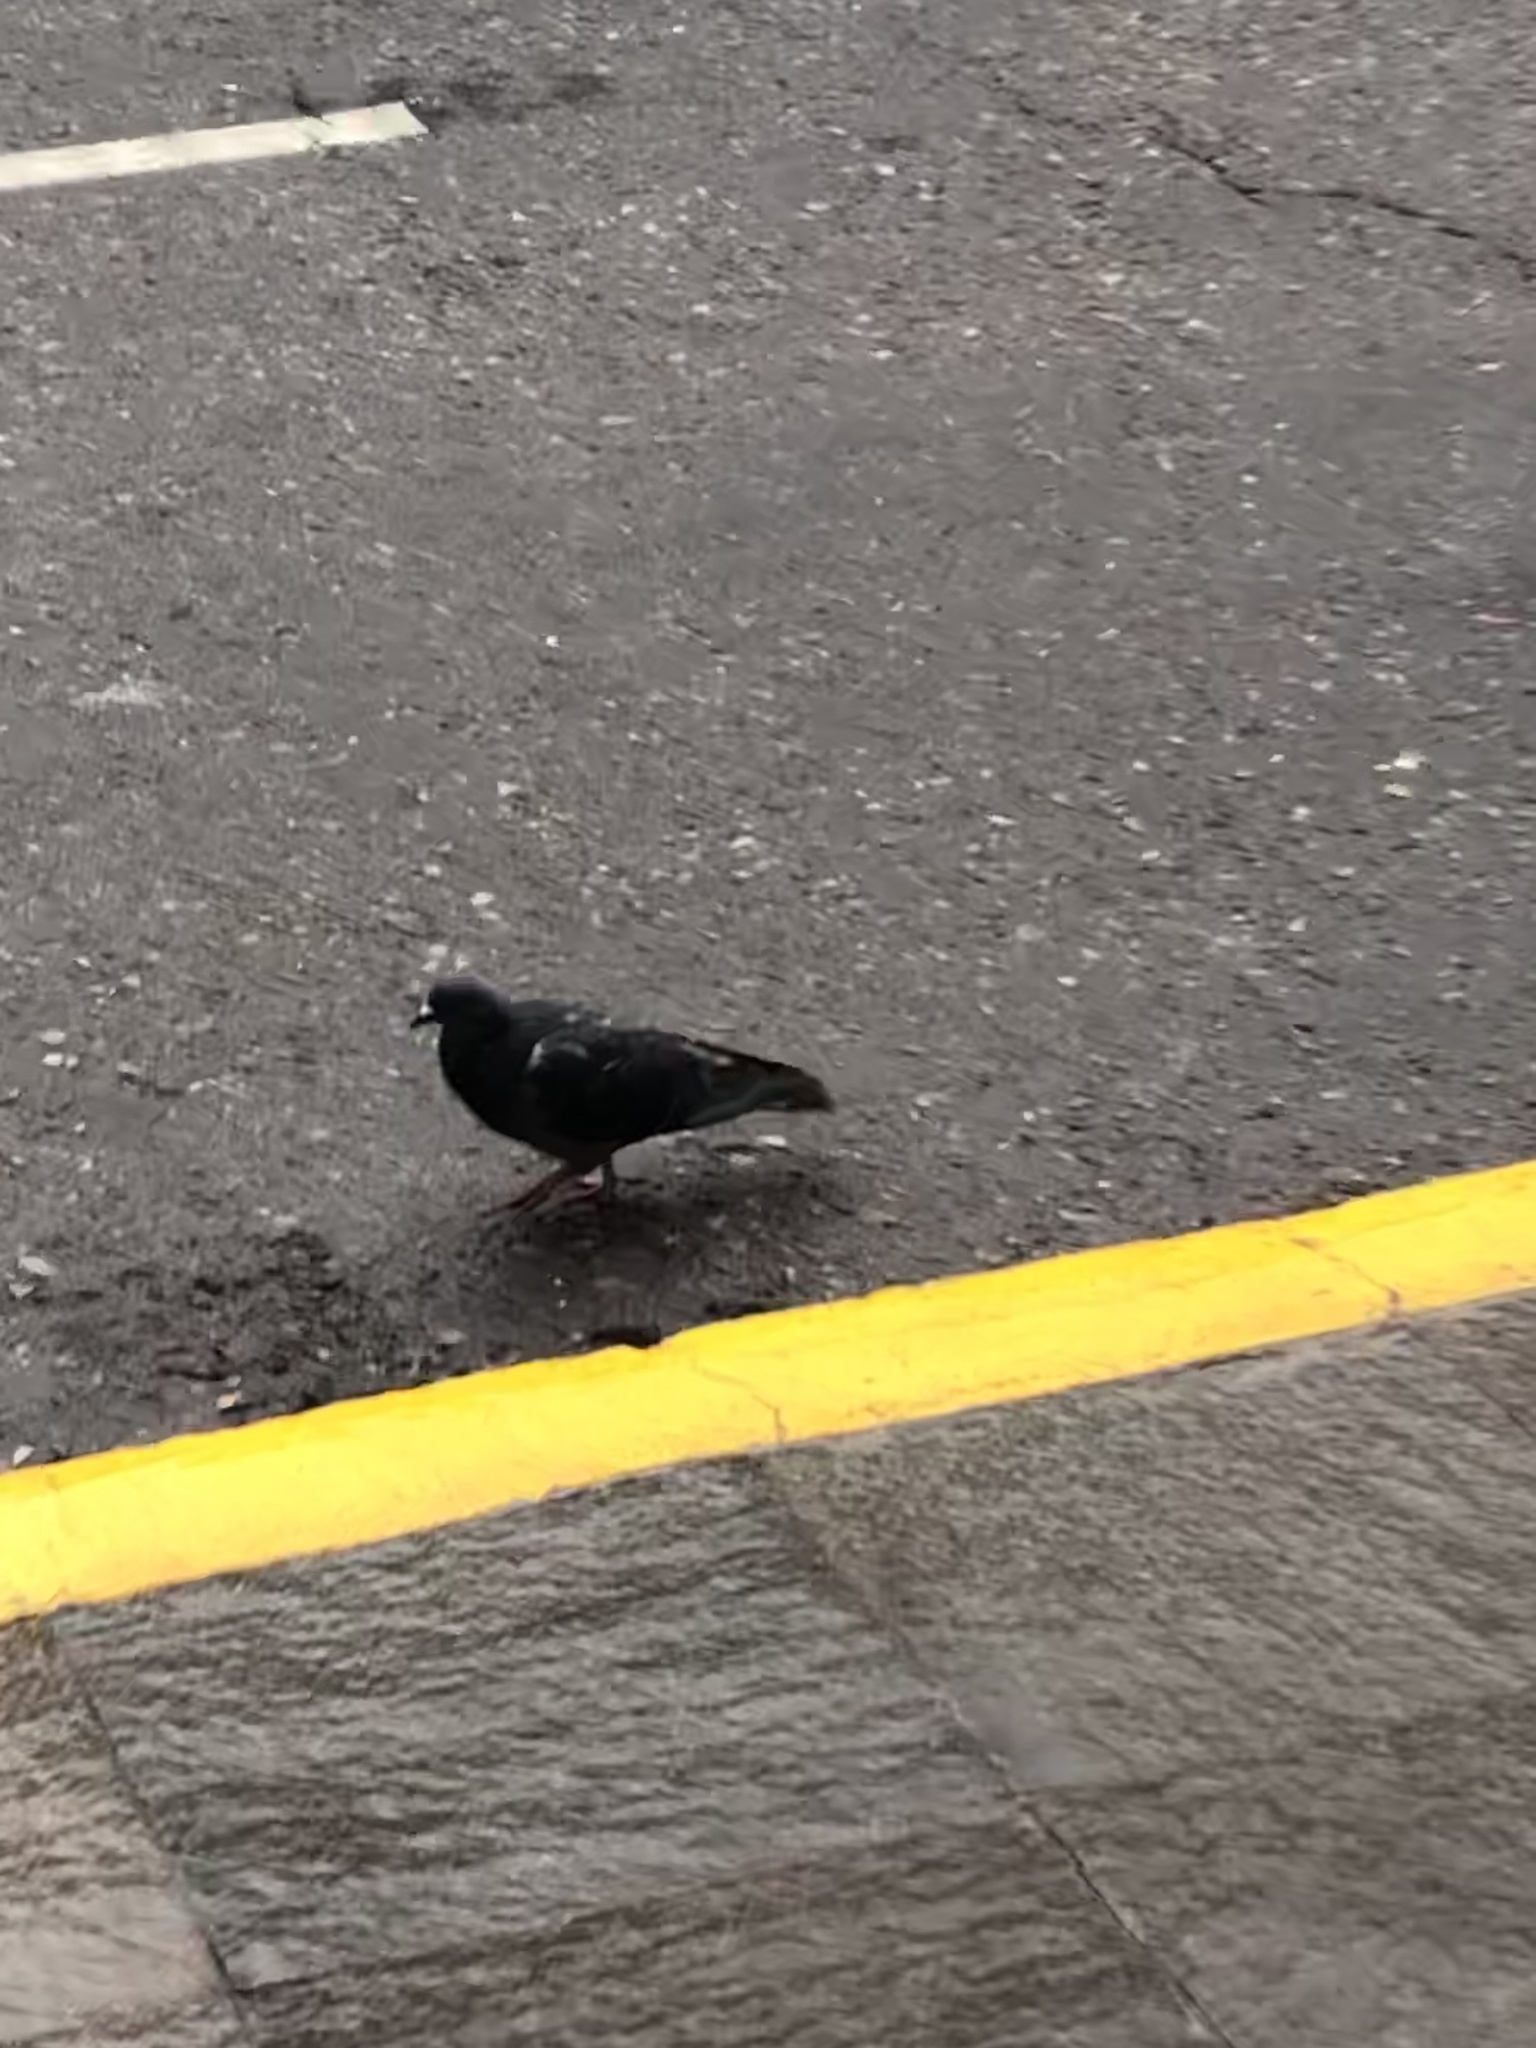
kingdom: Animalia
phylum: Chordata
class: Aves
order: Columbiformes
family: Columbidae
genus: Columba
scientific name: Columba livia
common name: Rock pigeon
